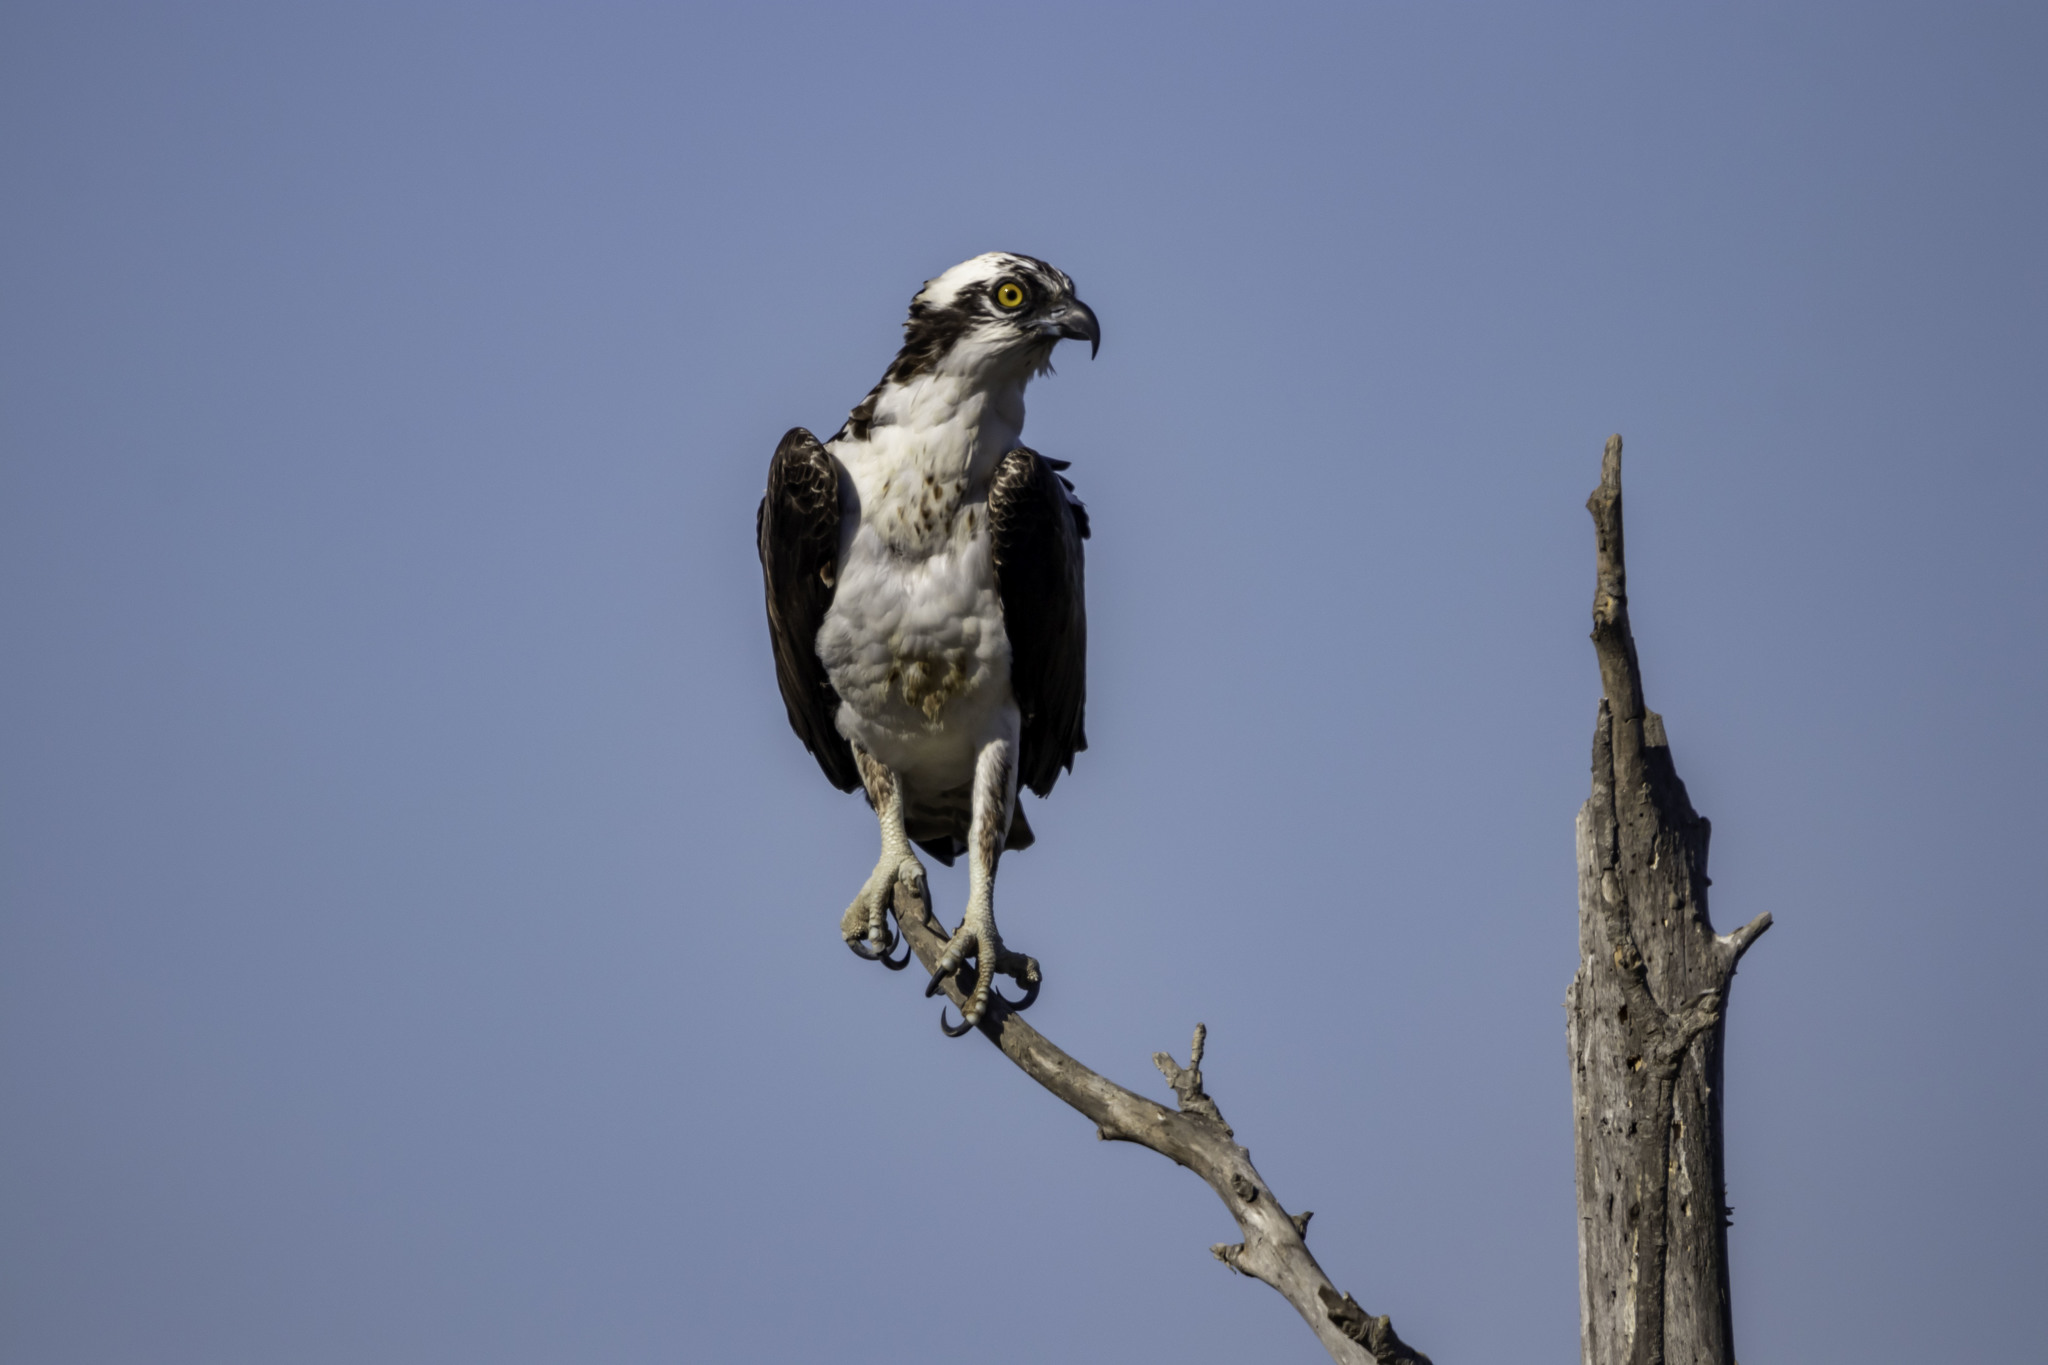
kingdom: Animalia
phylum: Chordata
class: Aves
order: Accipitriformes
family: Pandionidae
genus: Pandion
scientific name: Pandion haliaetus
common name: Osprey
